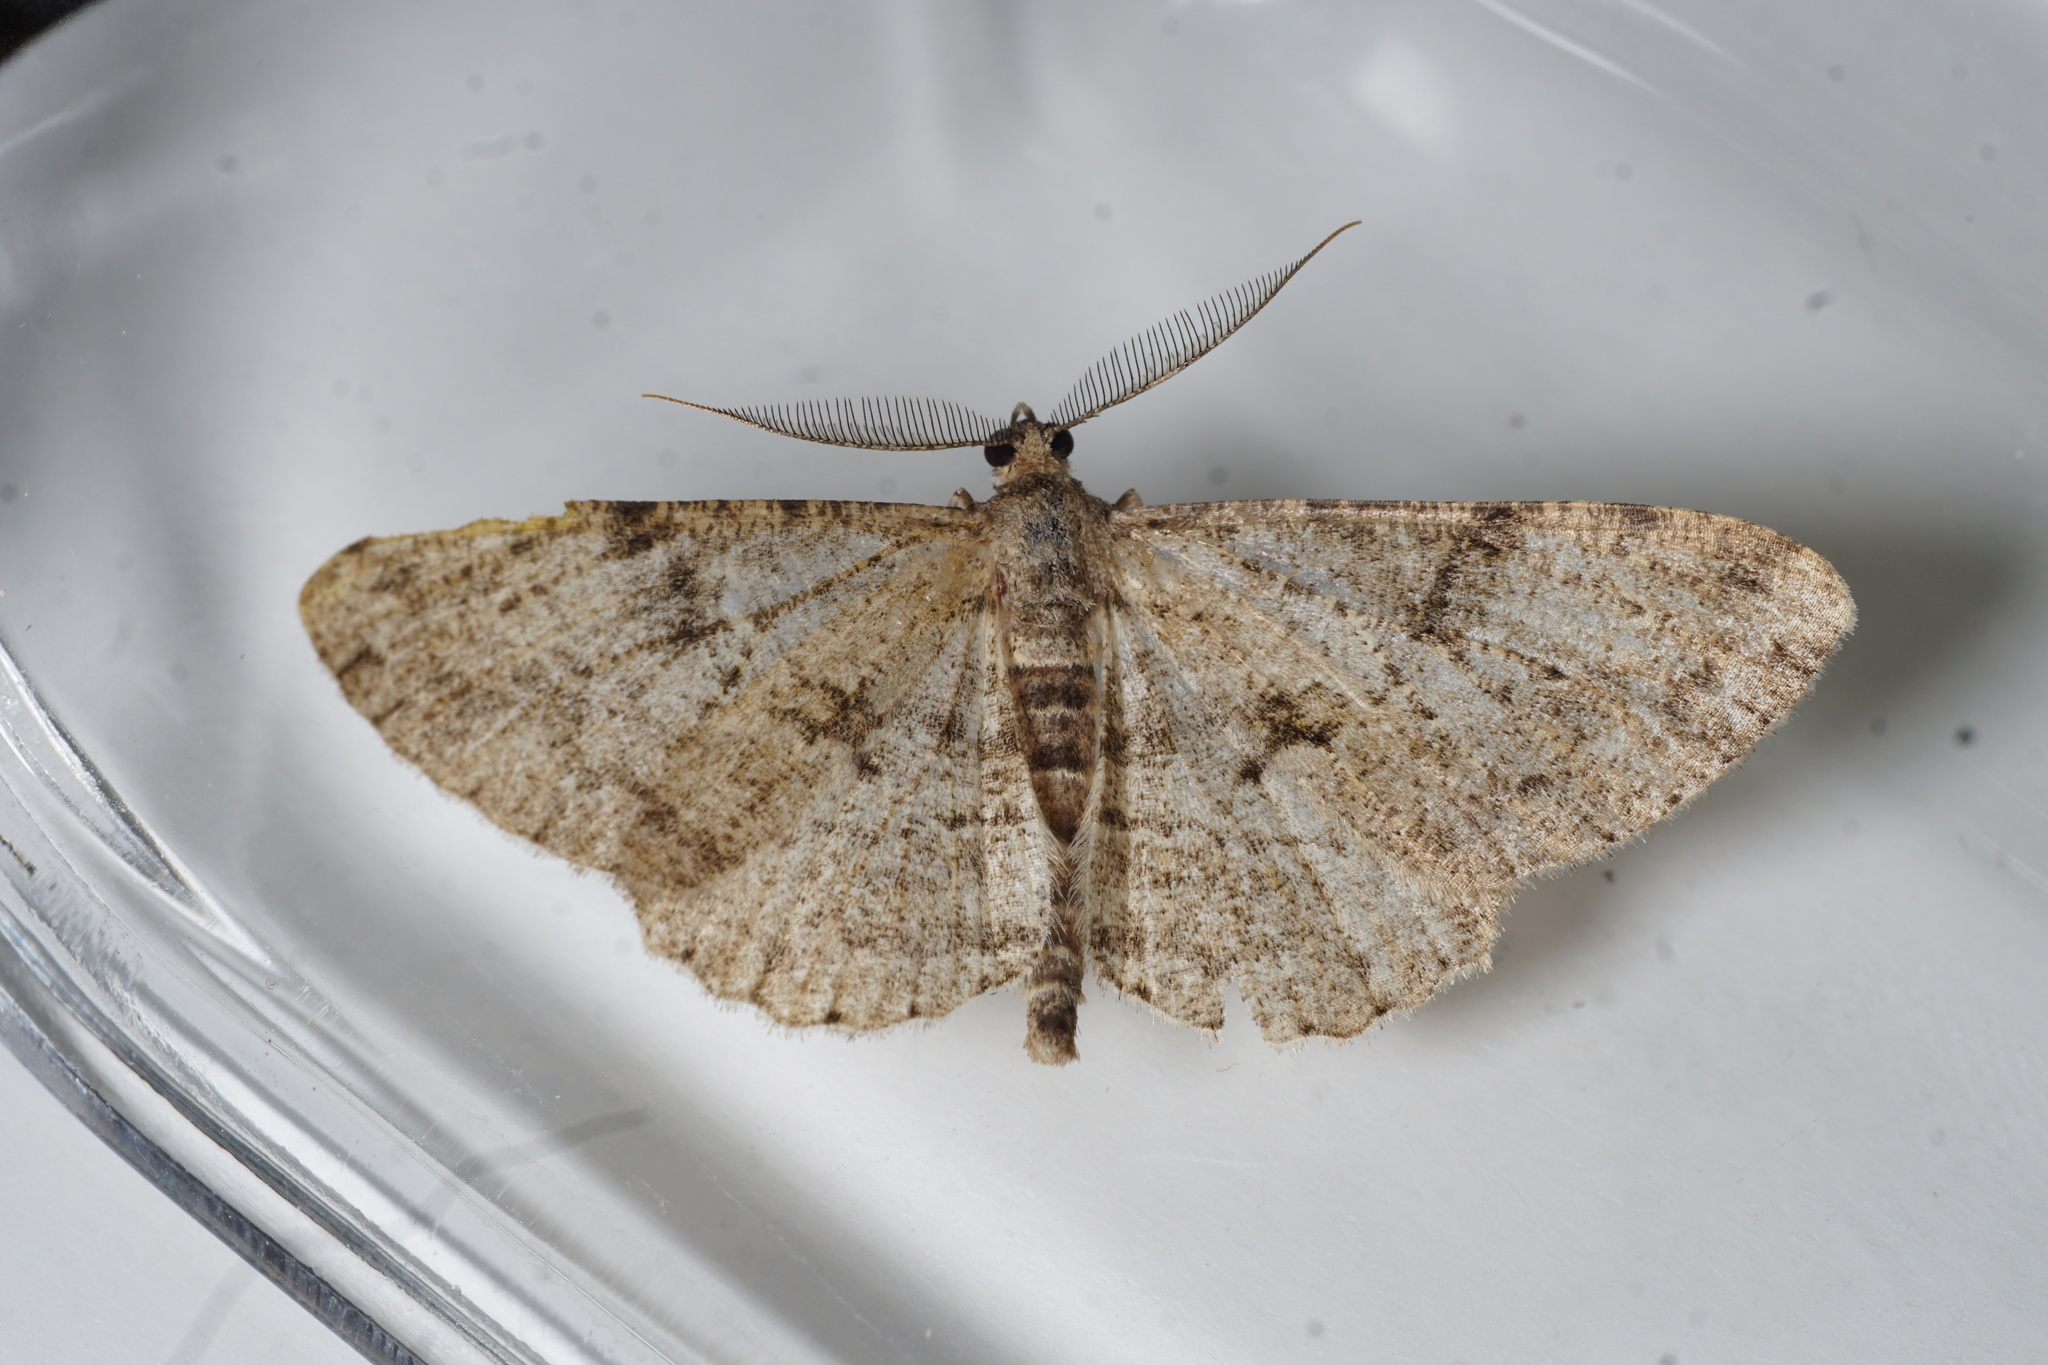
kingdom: Animalia
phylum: Arthropoda
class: Insecta
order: Lepidoptera
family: Geometridae
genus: Peribatodes
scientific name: Peribatodes rhomboidaria
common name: Willow beauty
